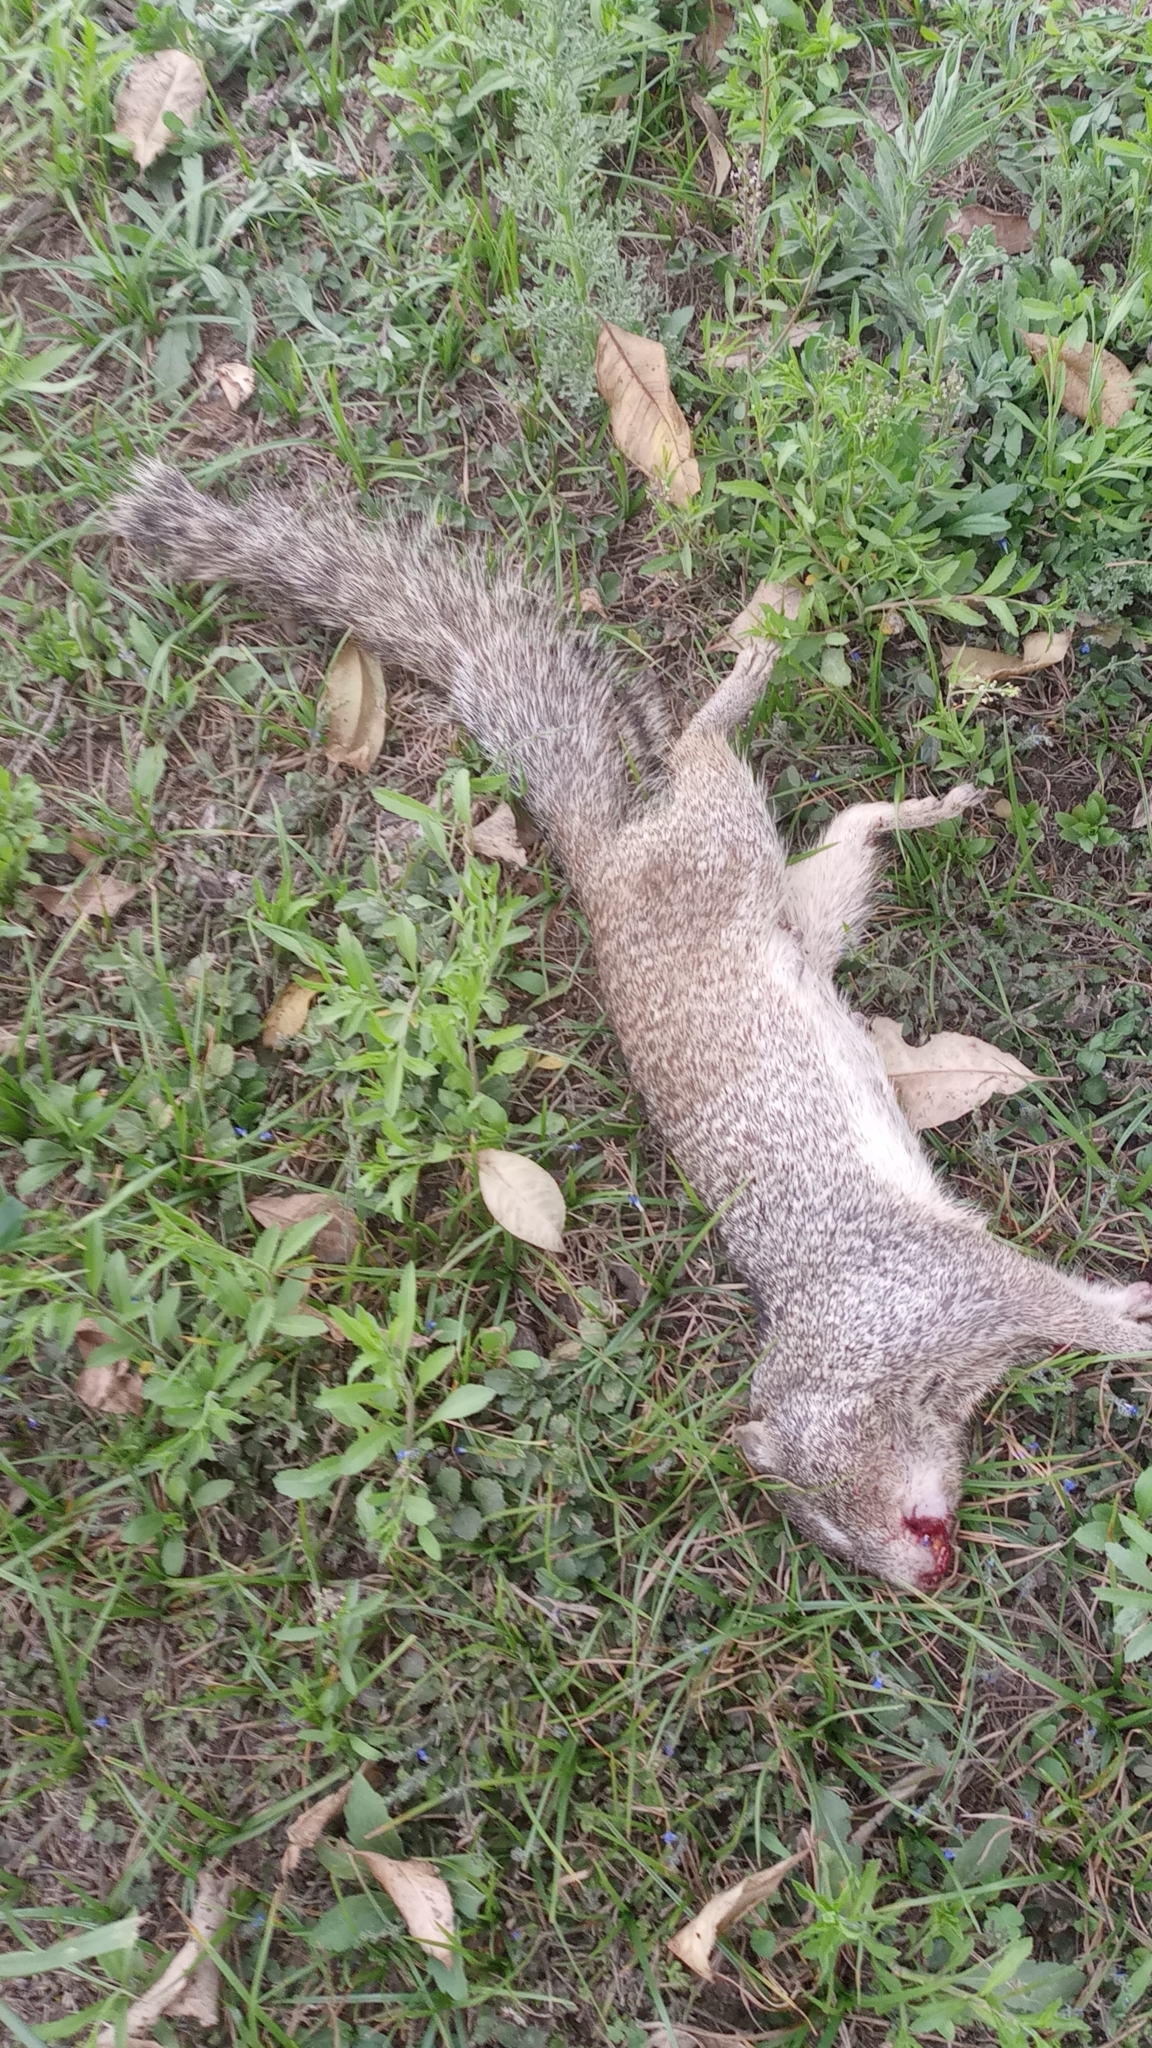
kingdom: Animalia
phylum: Chordata
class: Mammalia
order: Rodentia
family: Sciuridae
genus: Otospermophilus
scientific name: Otospermophilus variegatus
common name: Rock squirrel
